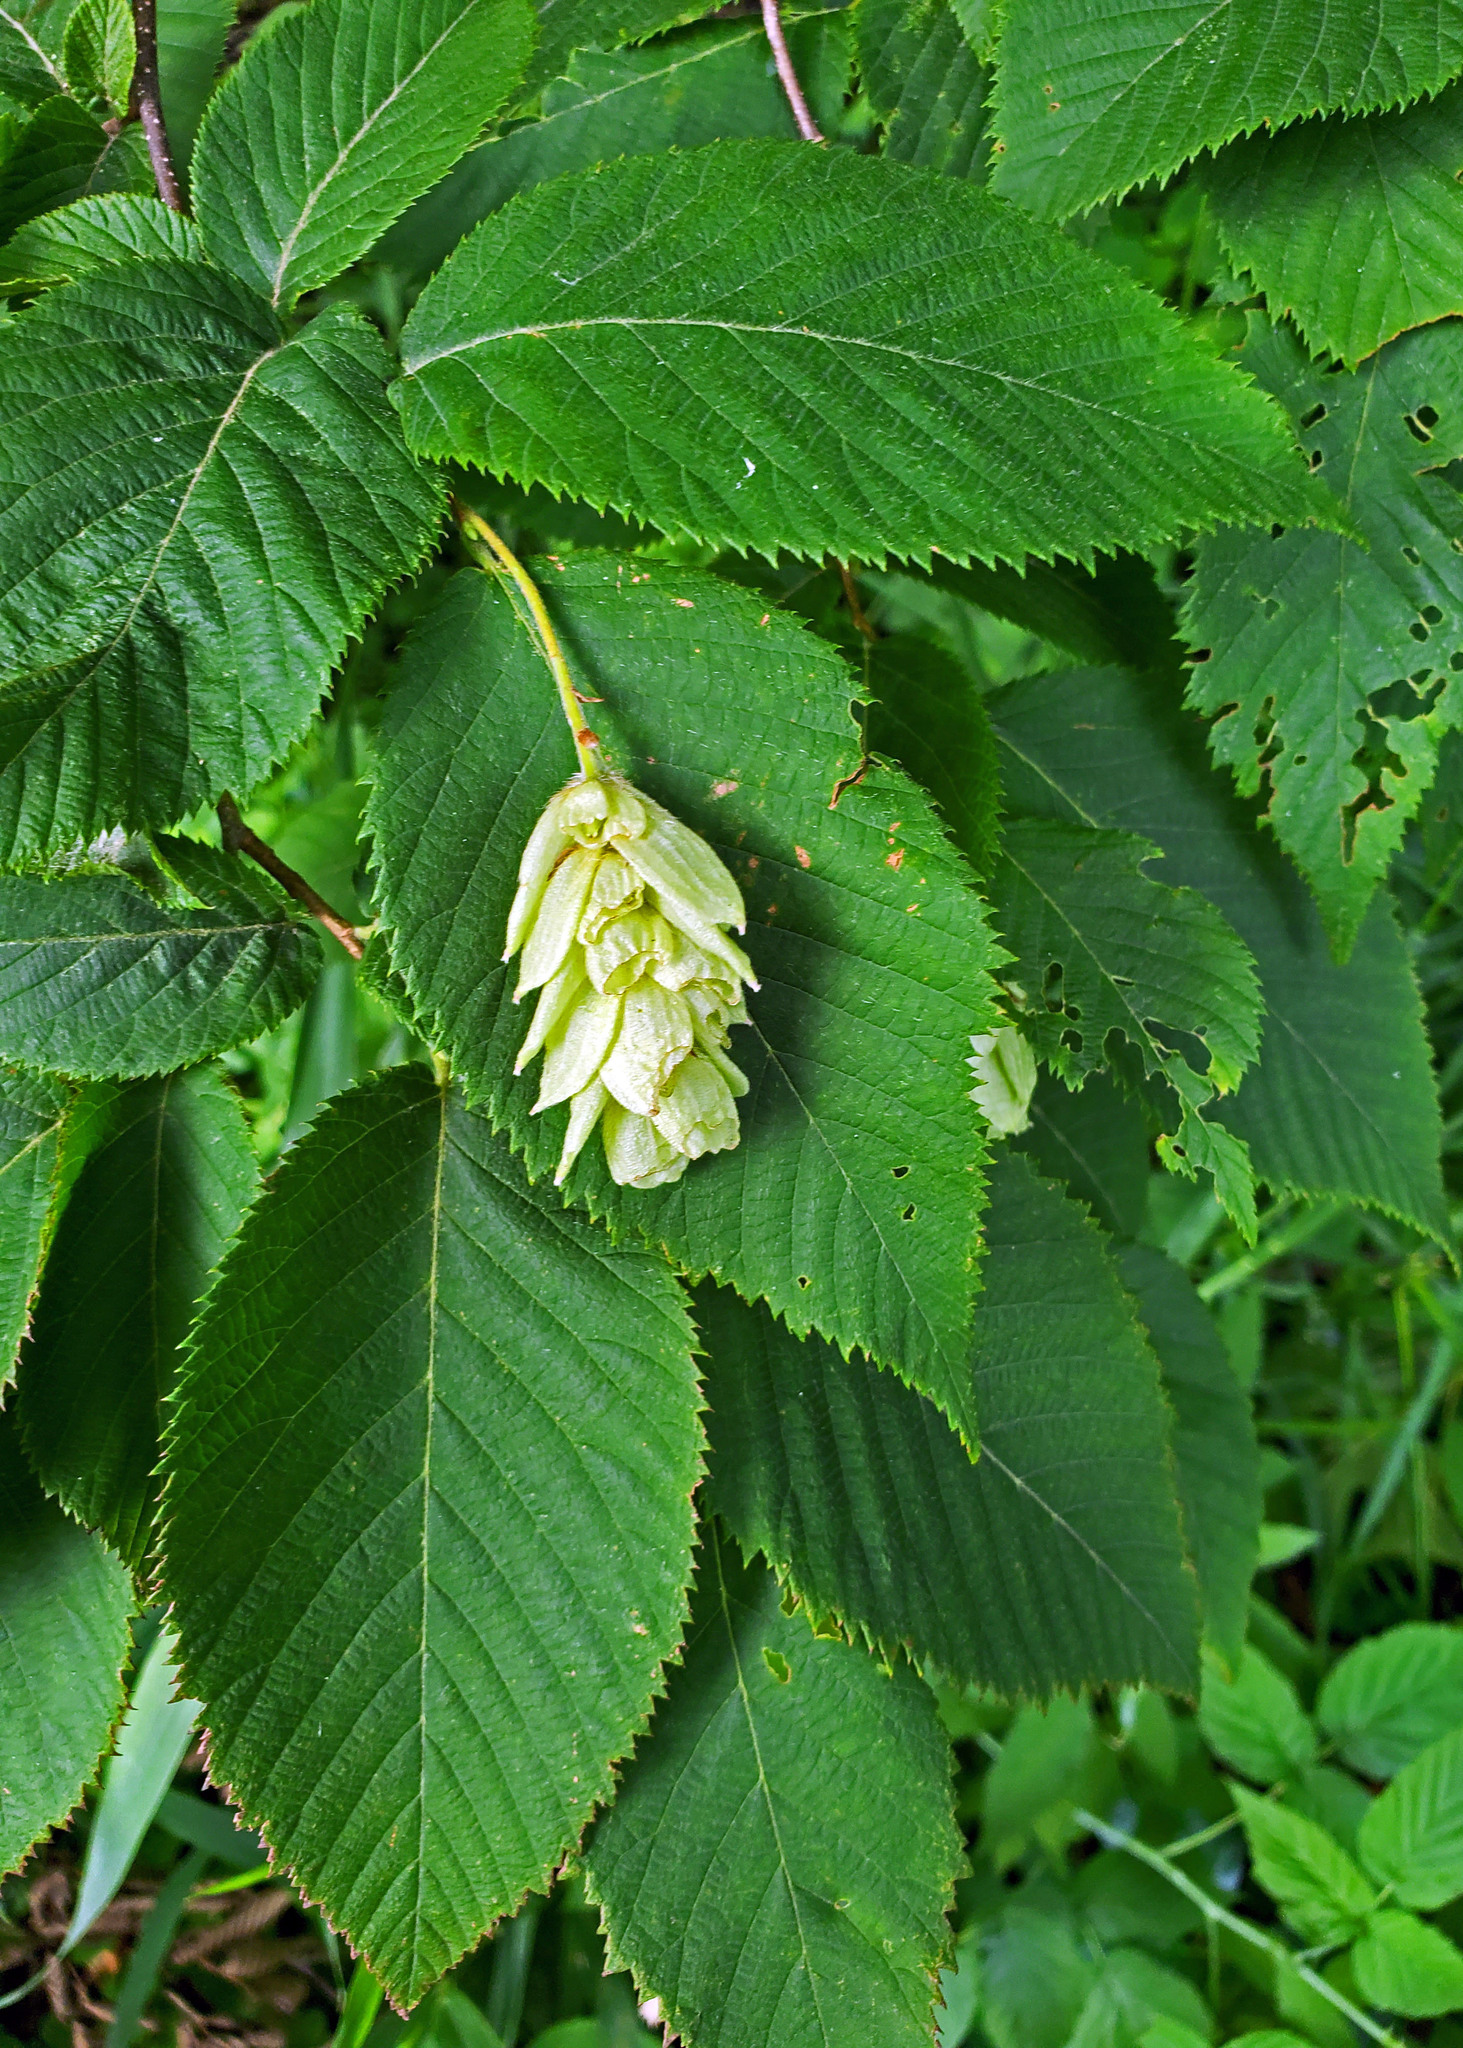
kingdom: Plantae
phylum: Tracheophyta
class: Magnoliopsida
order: Fagales
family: Betulaceae
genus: Ostrya
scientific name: Ostrya virginiana
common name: Ironwood
